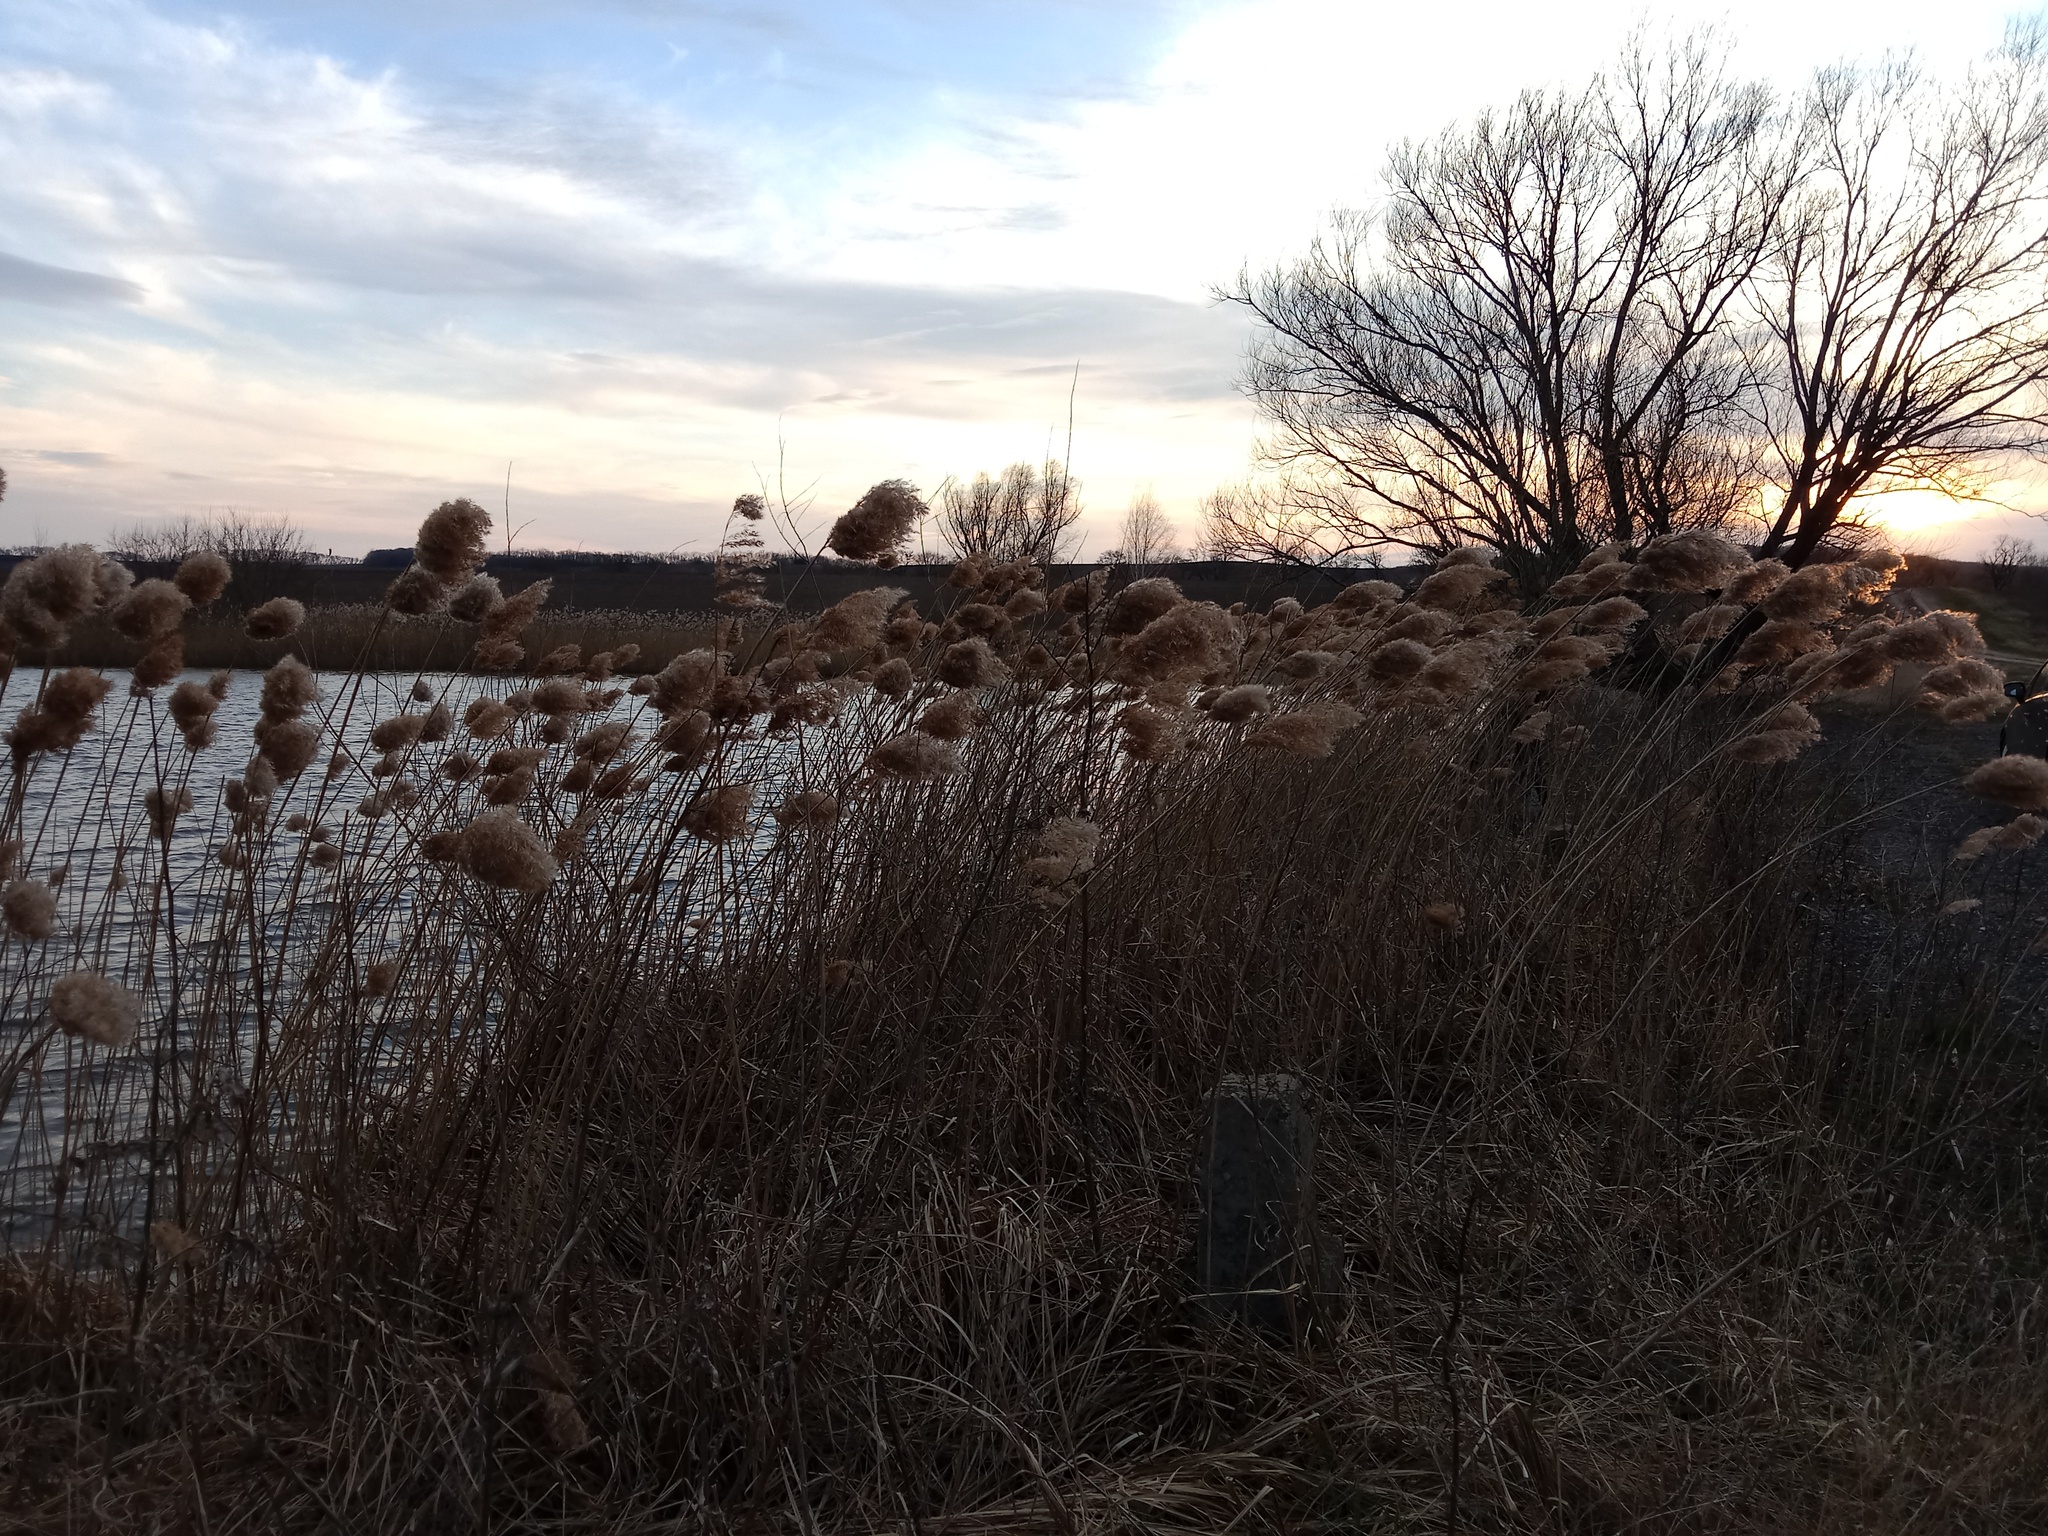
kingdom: Plantae
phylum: Tracheophyta
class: Liliopsida
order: Poales
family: Poaceae
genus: Phragmites
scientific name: Phragmites australis
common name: Common reed
